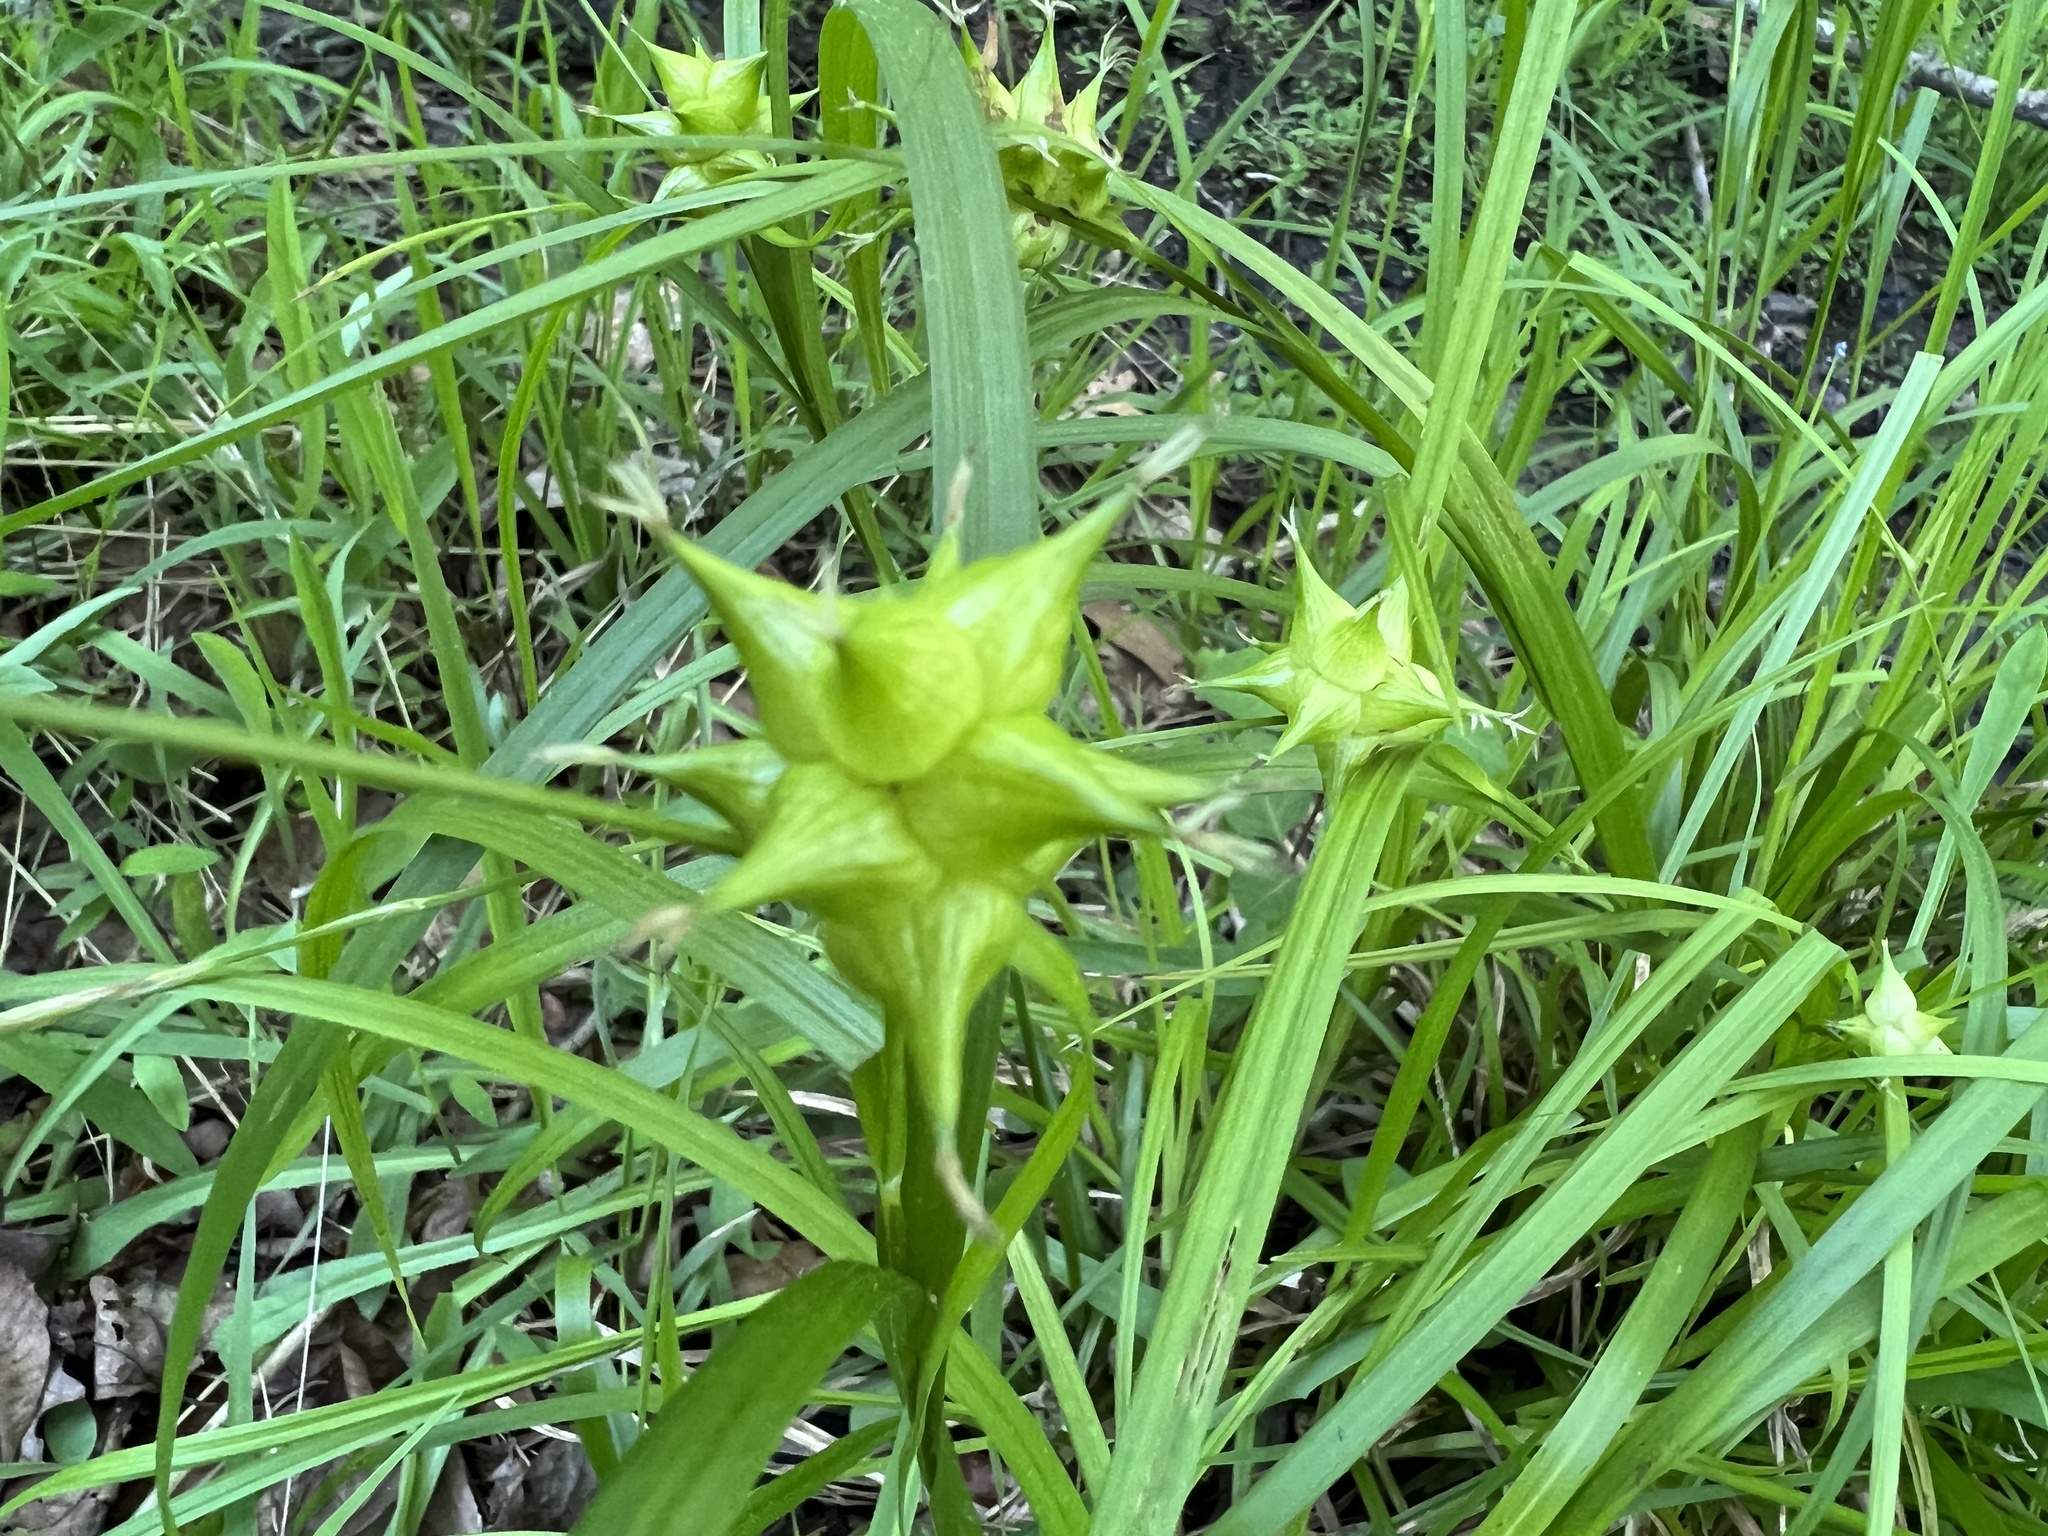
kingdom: Plantae
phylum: Tracheophyta
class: Liliopsida
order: Poales
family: Cyperaceae
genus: Carex
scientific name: Carex intumescens
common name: Greater bladder sedge
